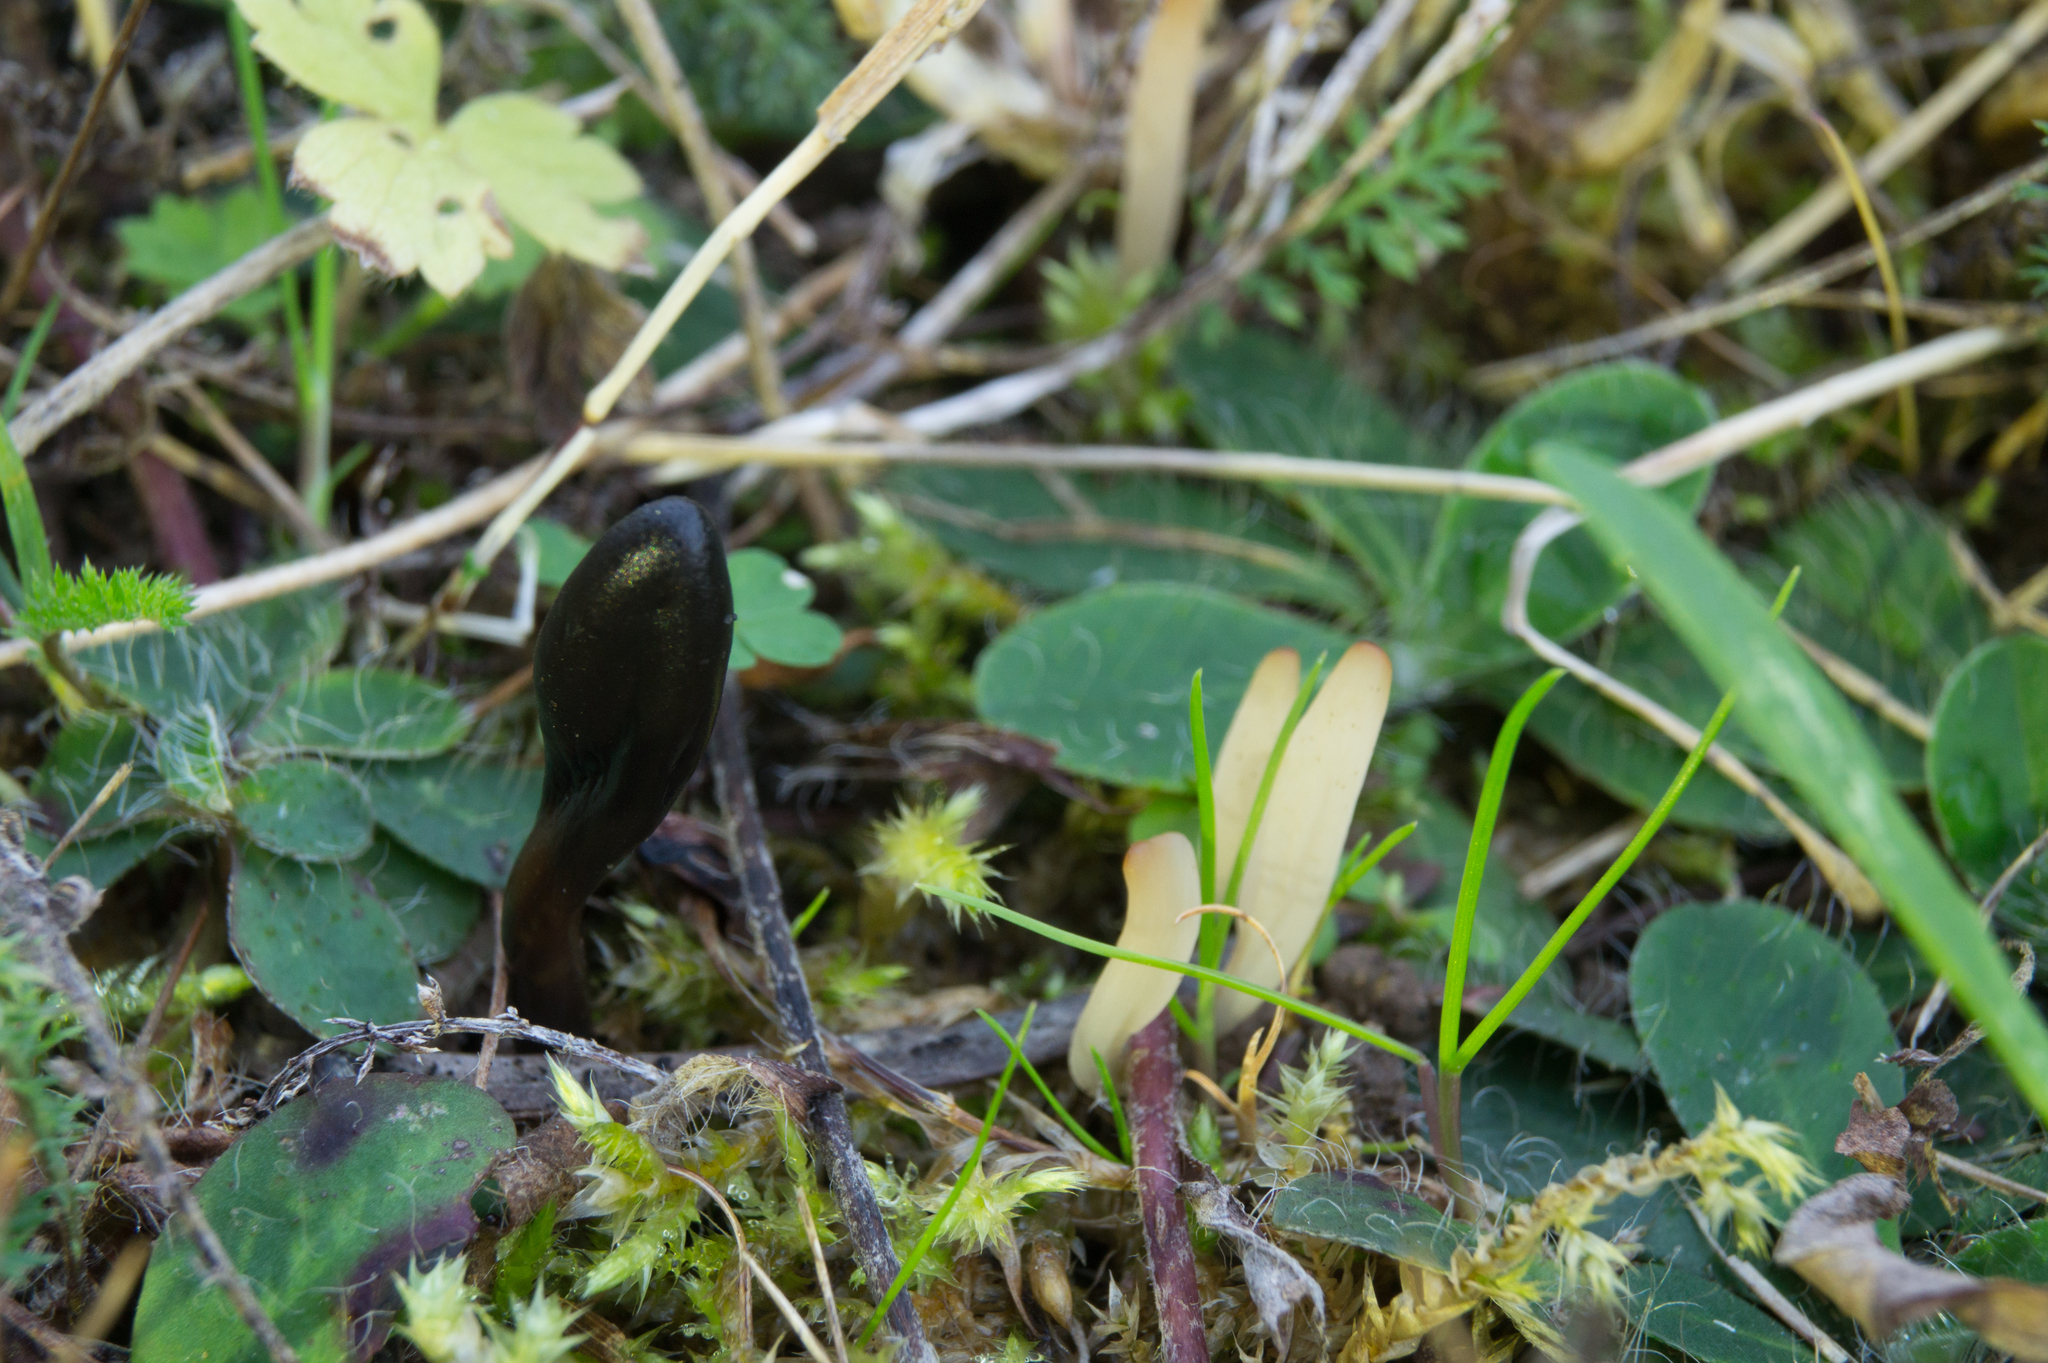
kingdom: Fungi
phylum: Ascomycota
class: Geoglossomycetes
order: Geoglossales
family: Geoglossaceae
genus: Glutinoglossum
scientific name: Glutinoglossum glutinosum
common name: Glutinous earthtongue
